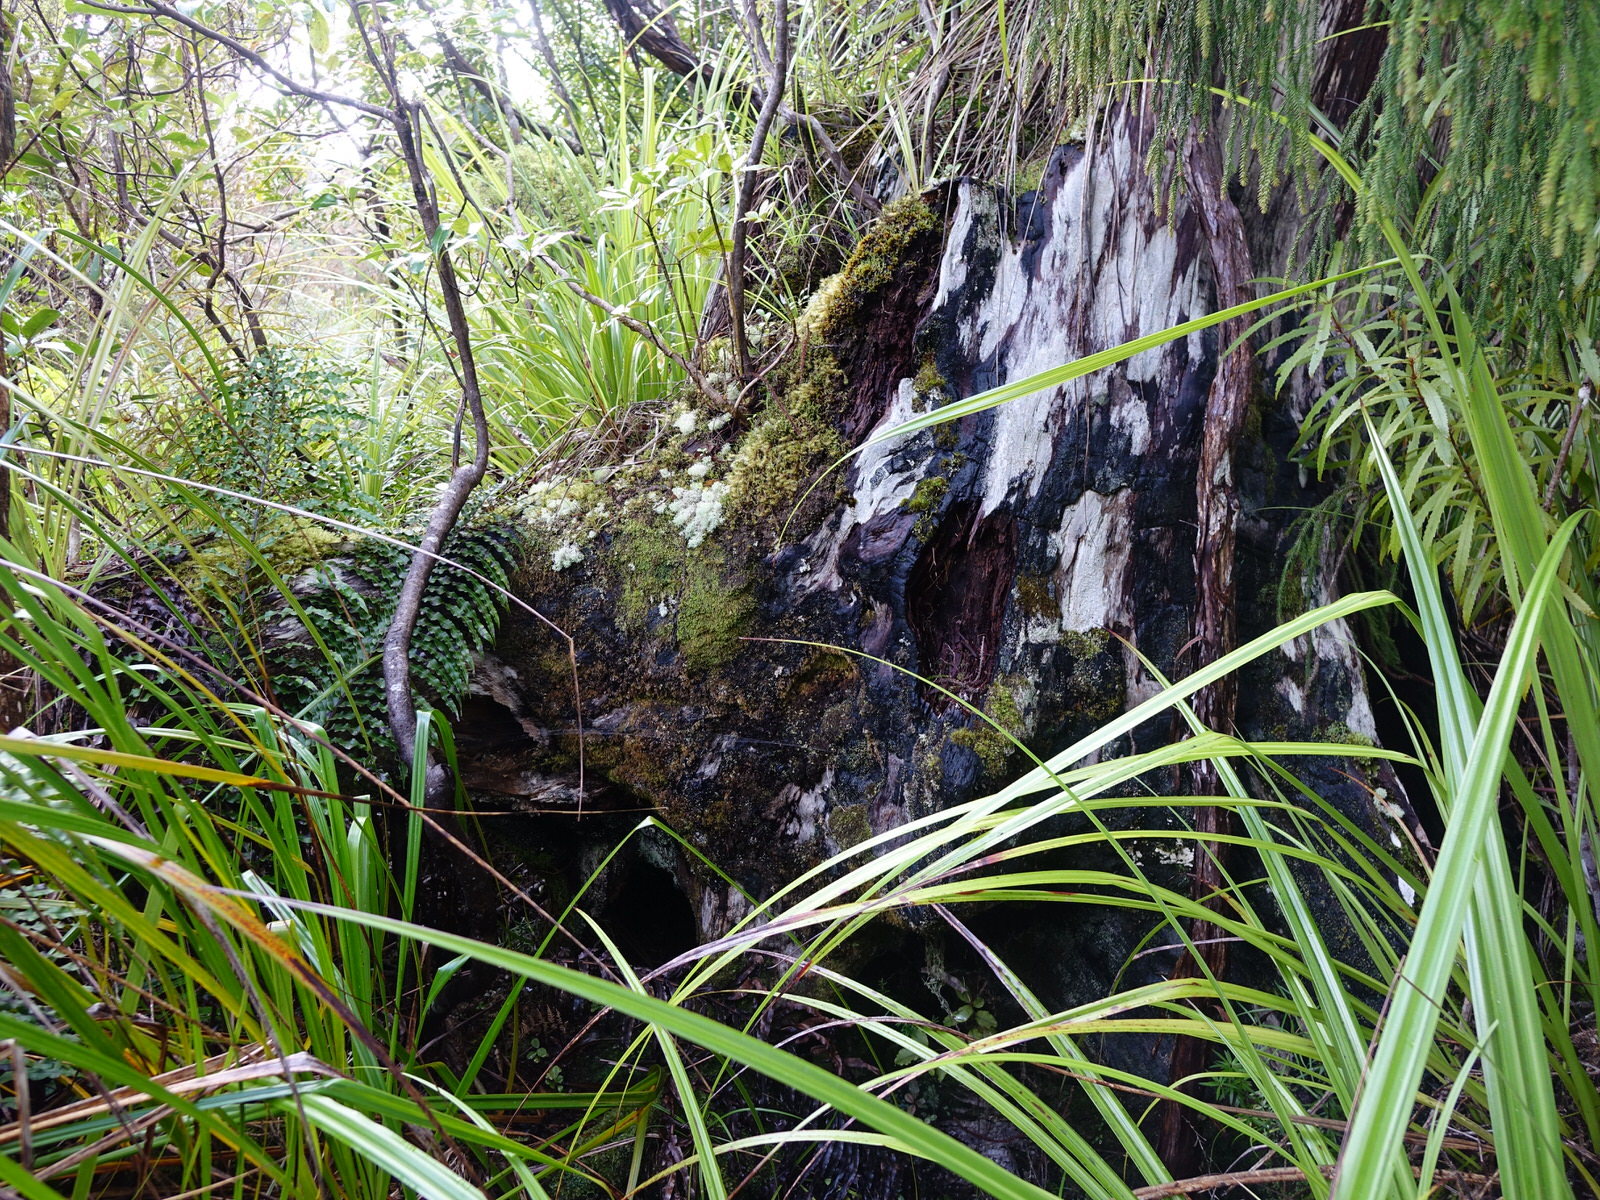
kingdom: Plantae
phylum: Tracheophyta
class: Pinopsida
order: Pinales
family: Araucariaceae
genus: Agathis
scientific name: Agathis australis
